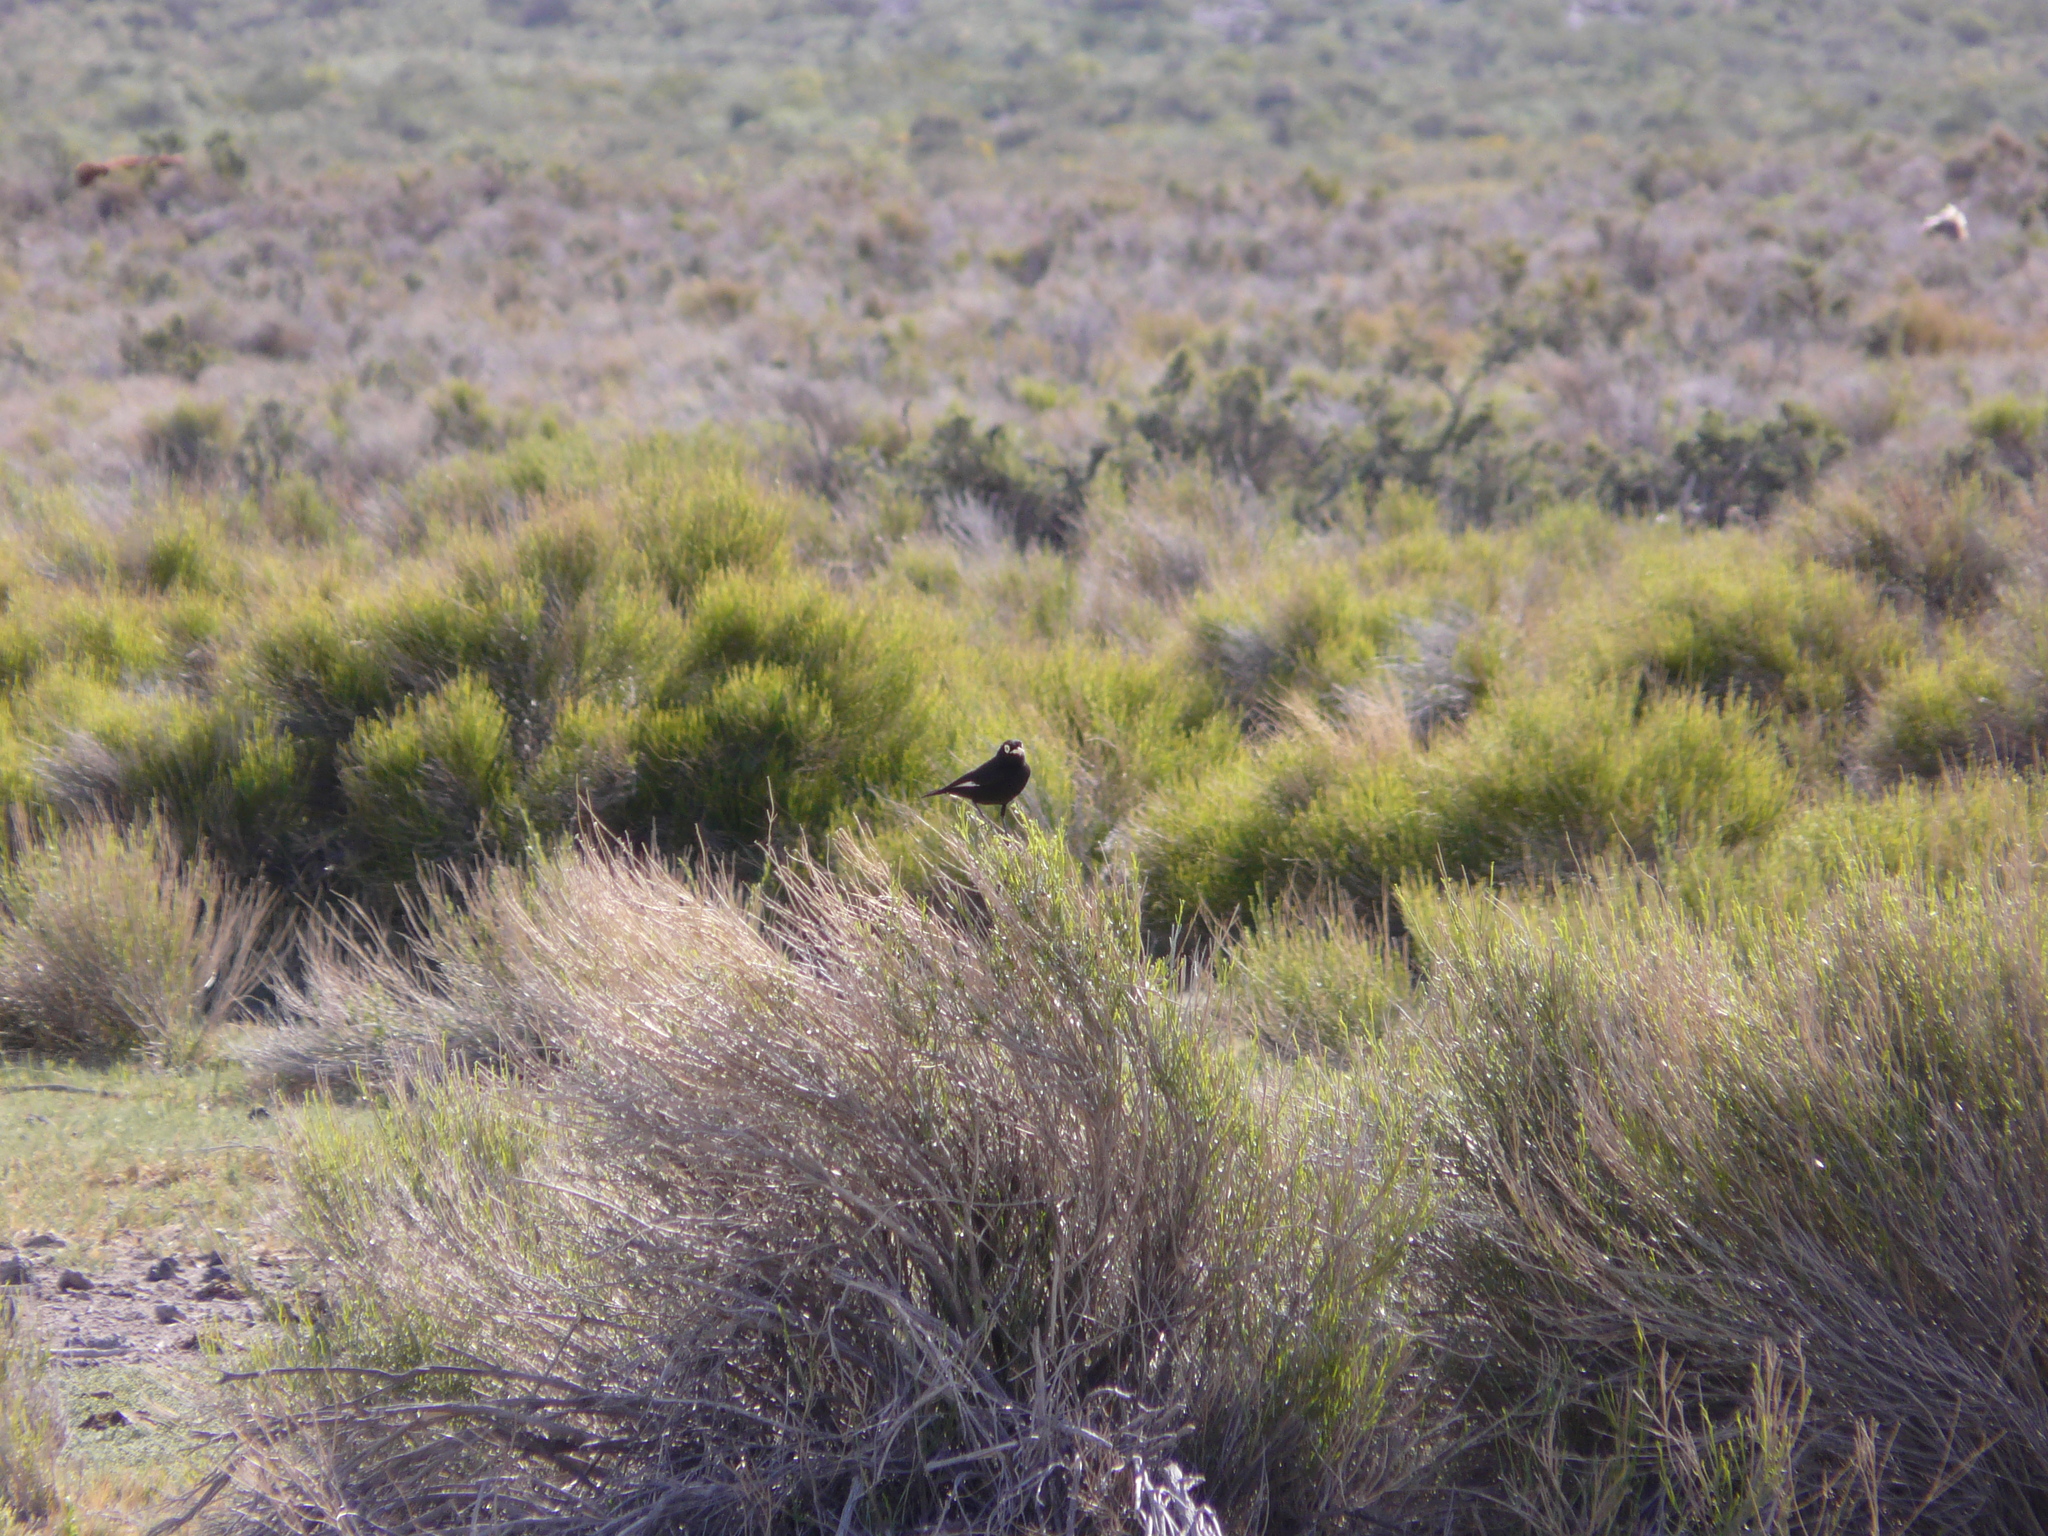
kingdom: Animalia
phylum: Chordata
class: Aves
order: Passeriformes
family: Tyrannidae
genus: Hymenops
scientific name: Hymenops perspicillatus
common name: Spectacled tyrant
